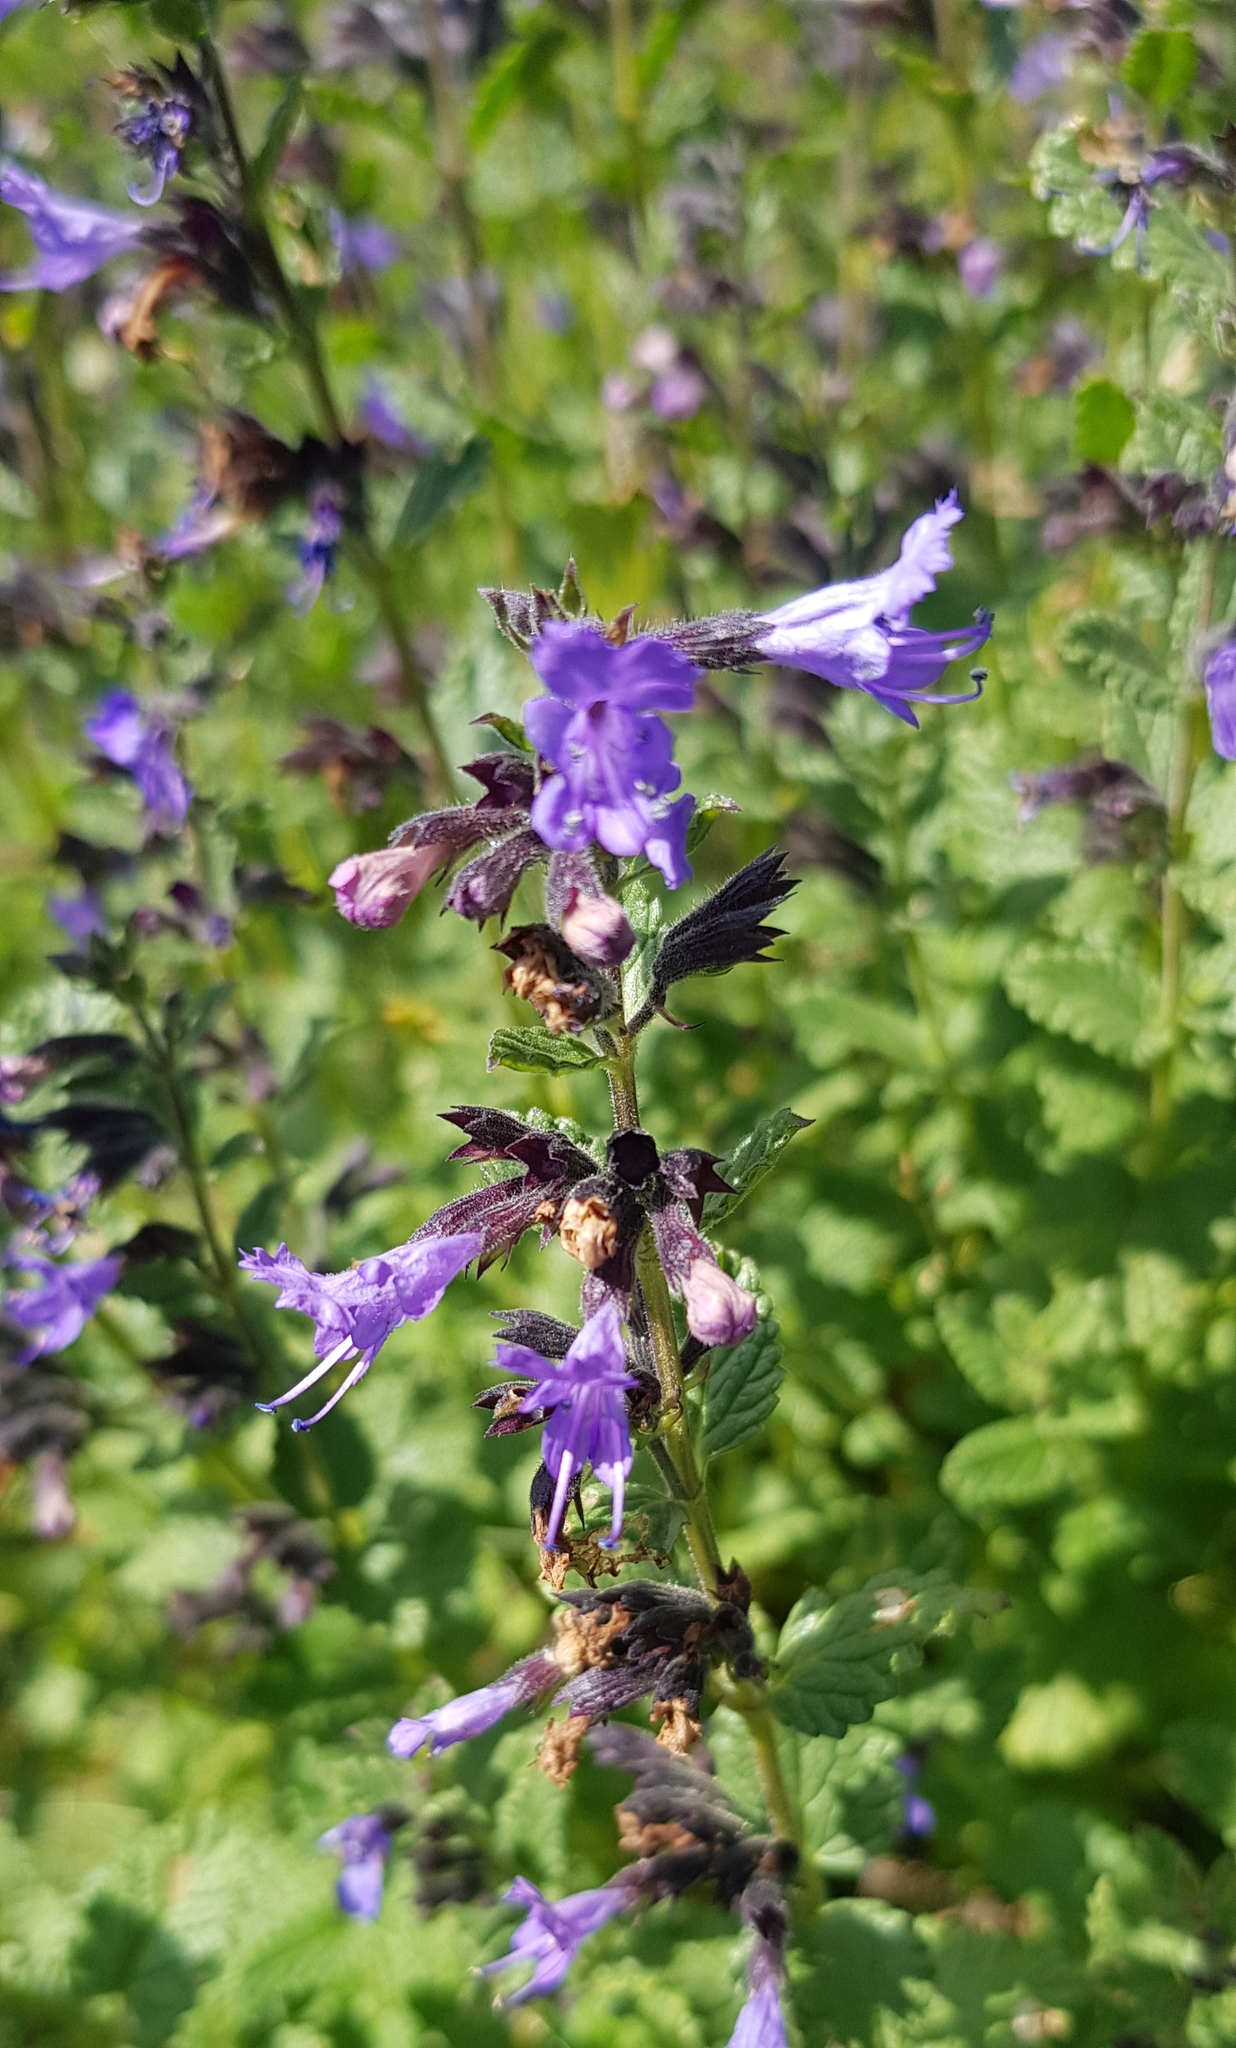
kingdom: Plantae
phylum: Tracheophyta
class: Magnoliopsida
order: Lamiales
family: Lamiaceae
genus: Nepeta
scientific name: Nepeta lophanthus
